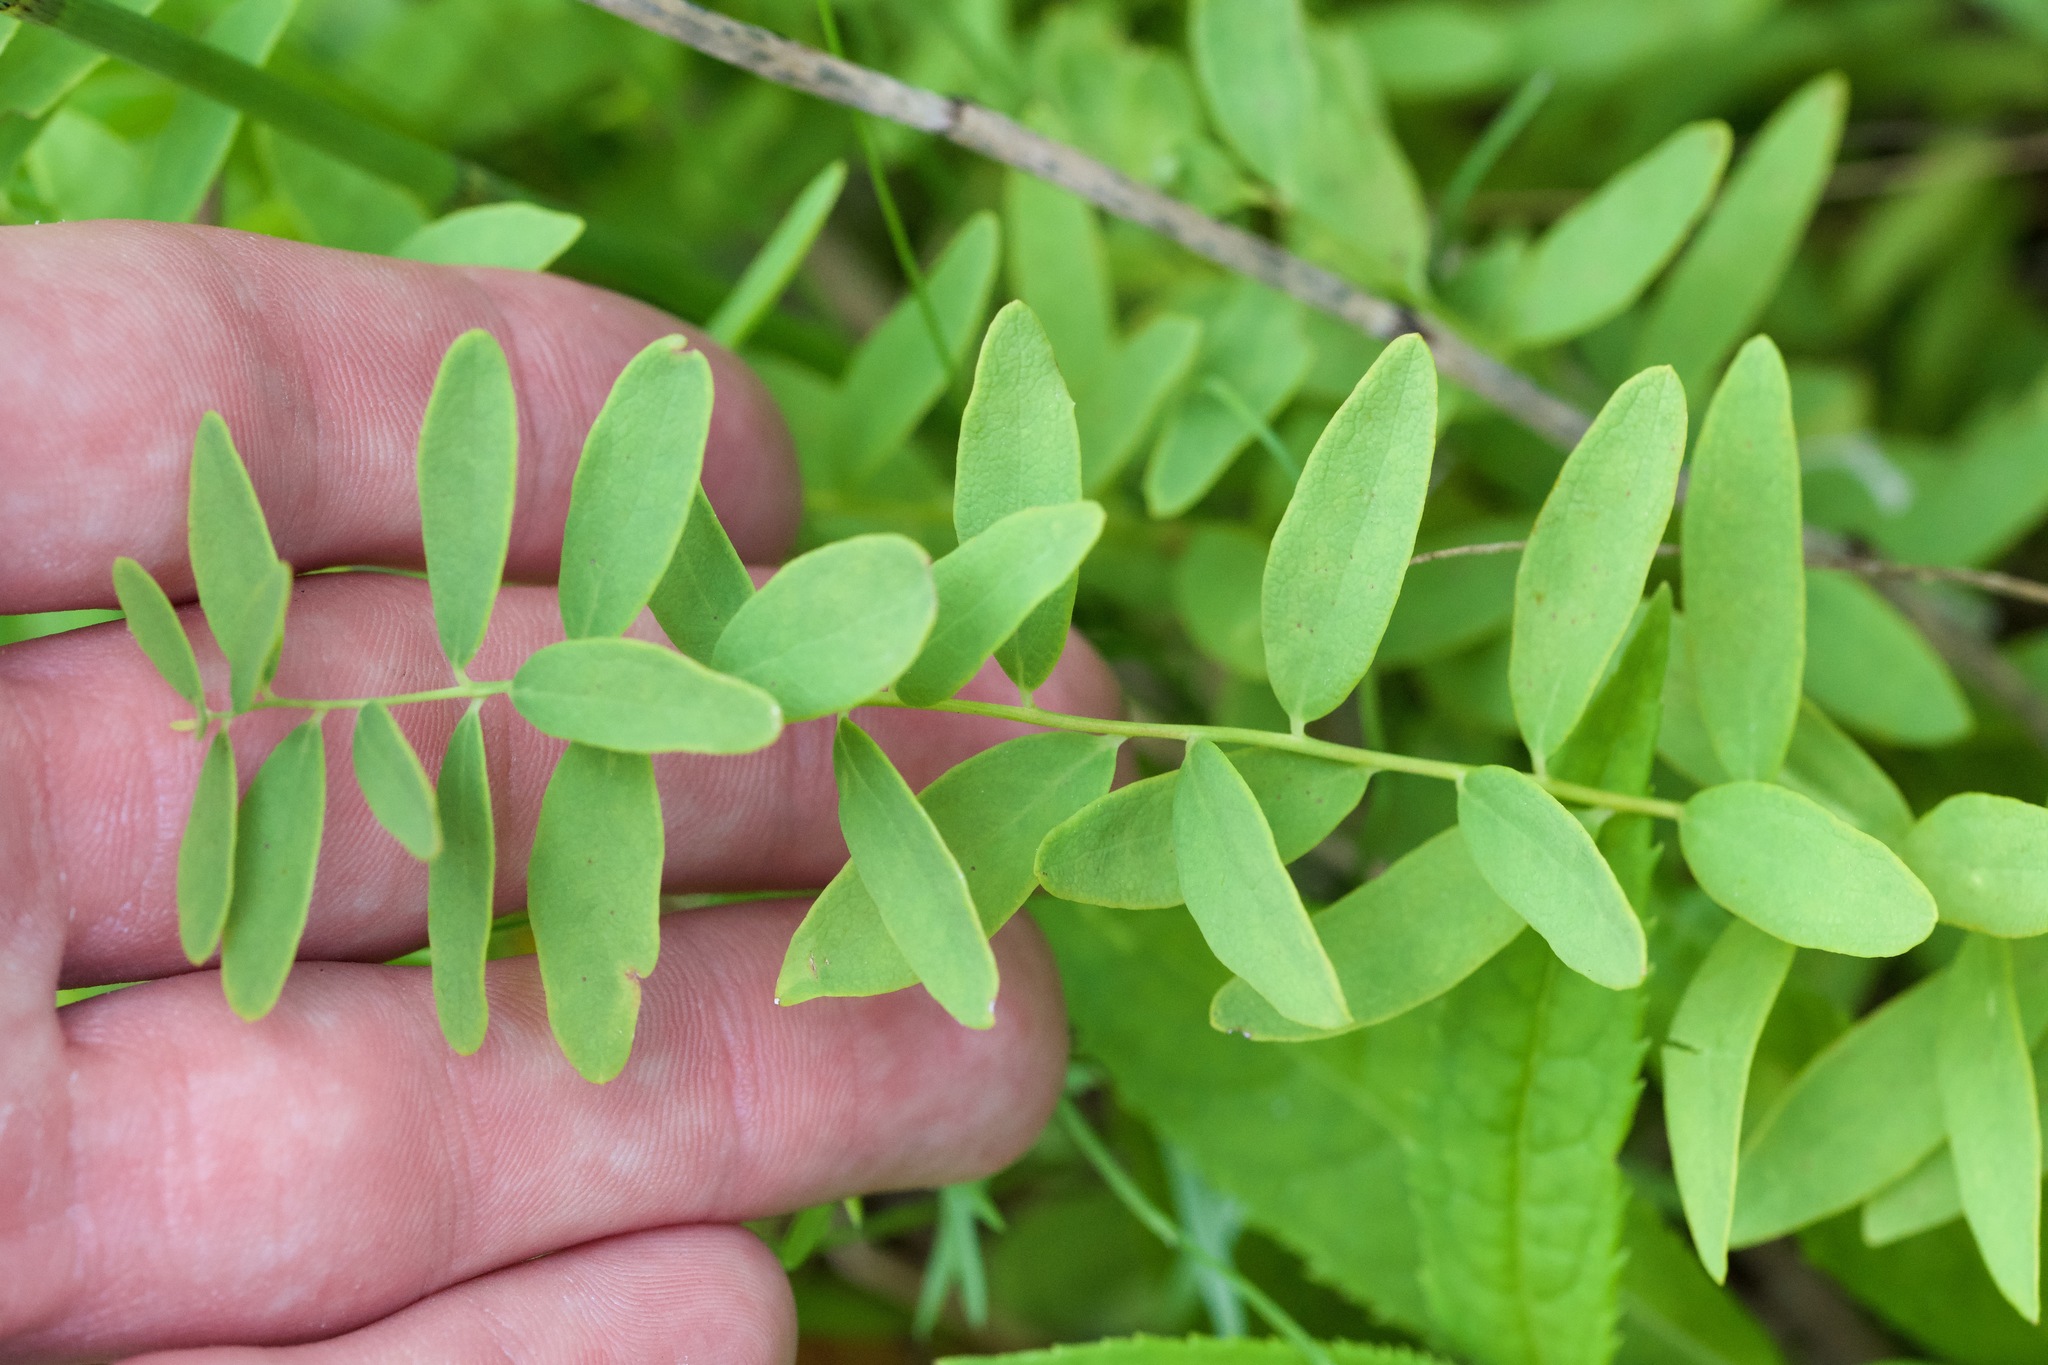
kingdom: Plantae
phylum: Tracheophyta
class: Magnoliopsida
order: Santalales
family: Comandraceae
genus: Comandra
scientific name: Comandra umbellata
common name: Bastard toadflax
